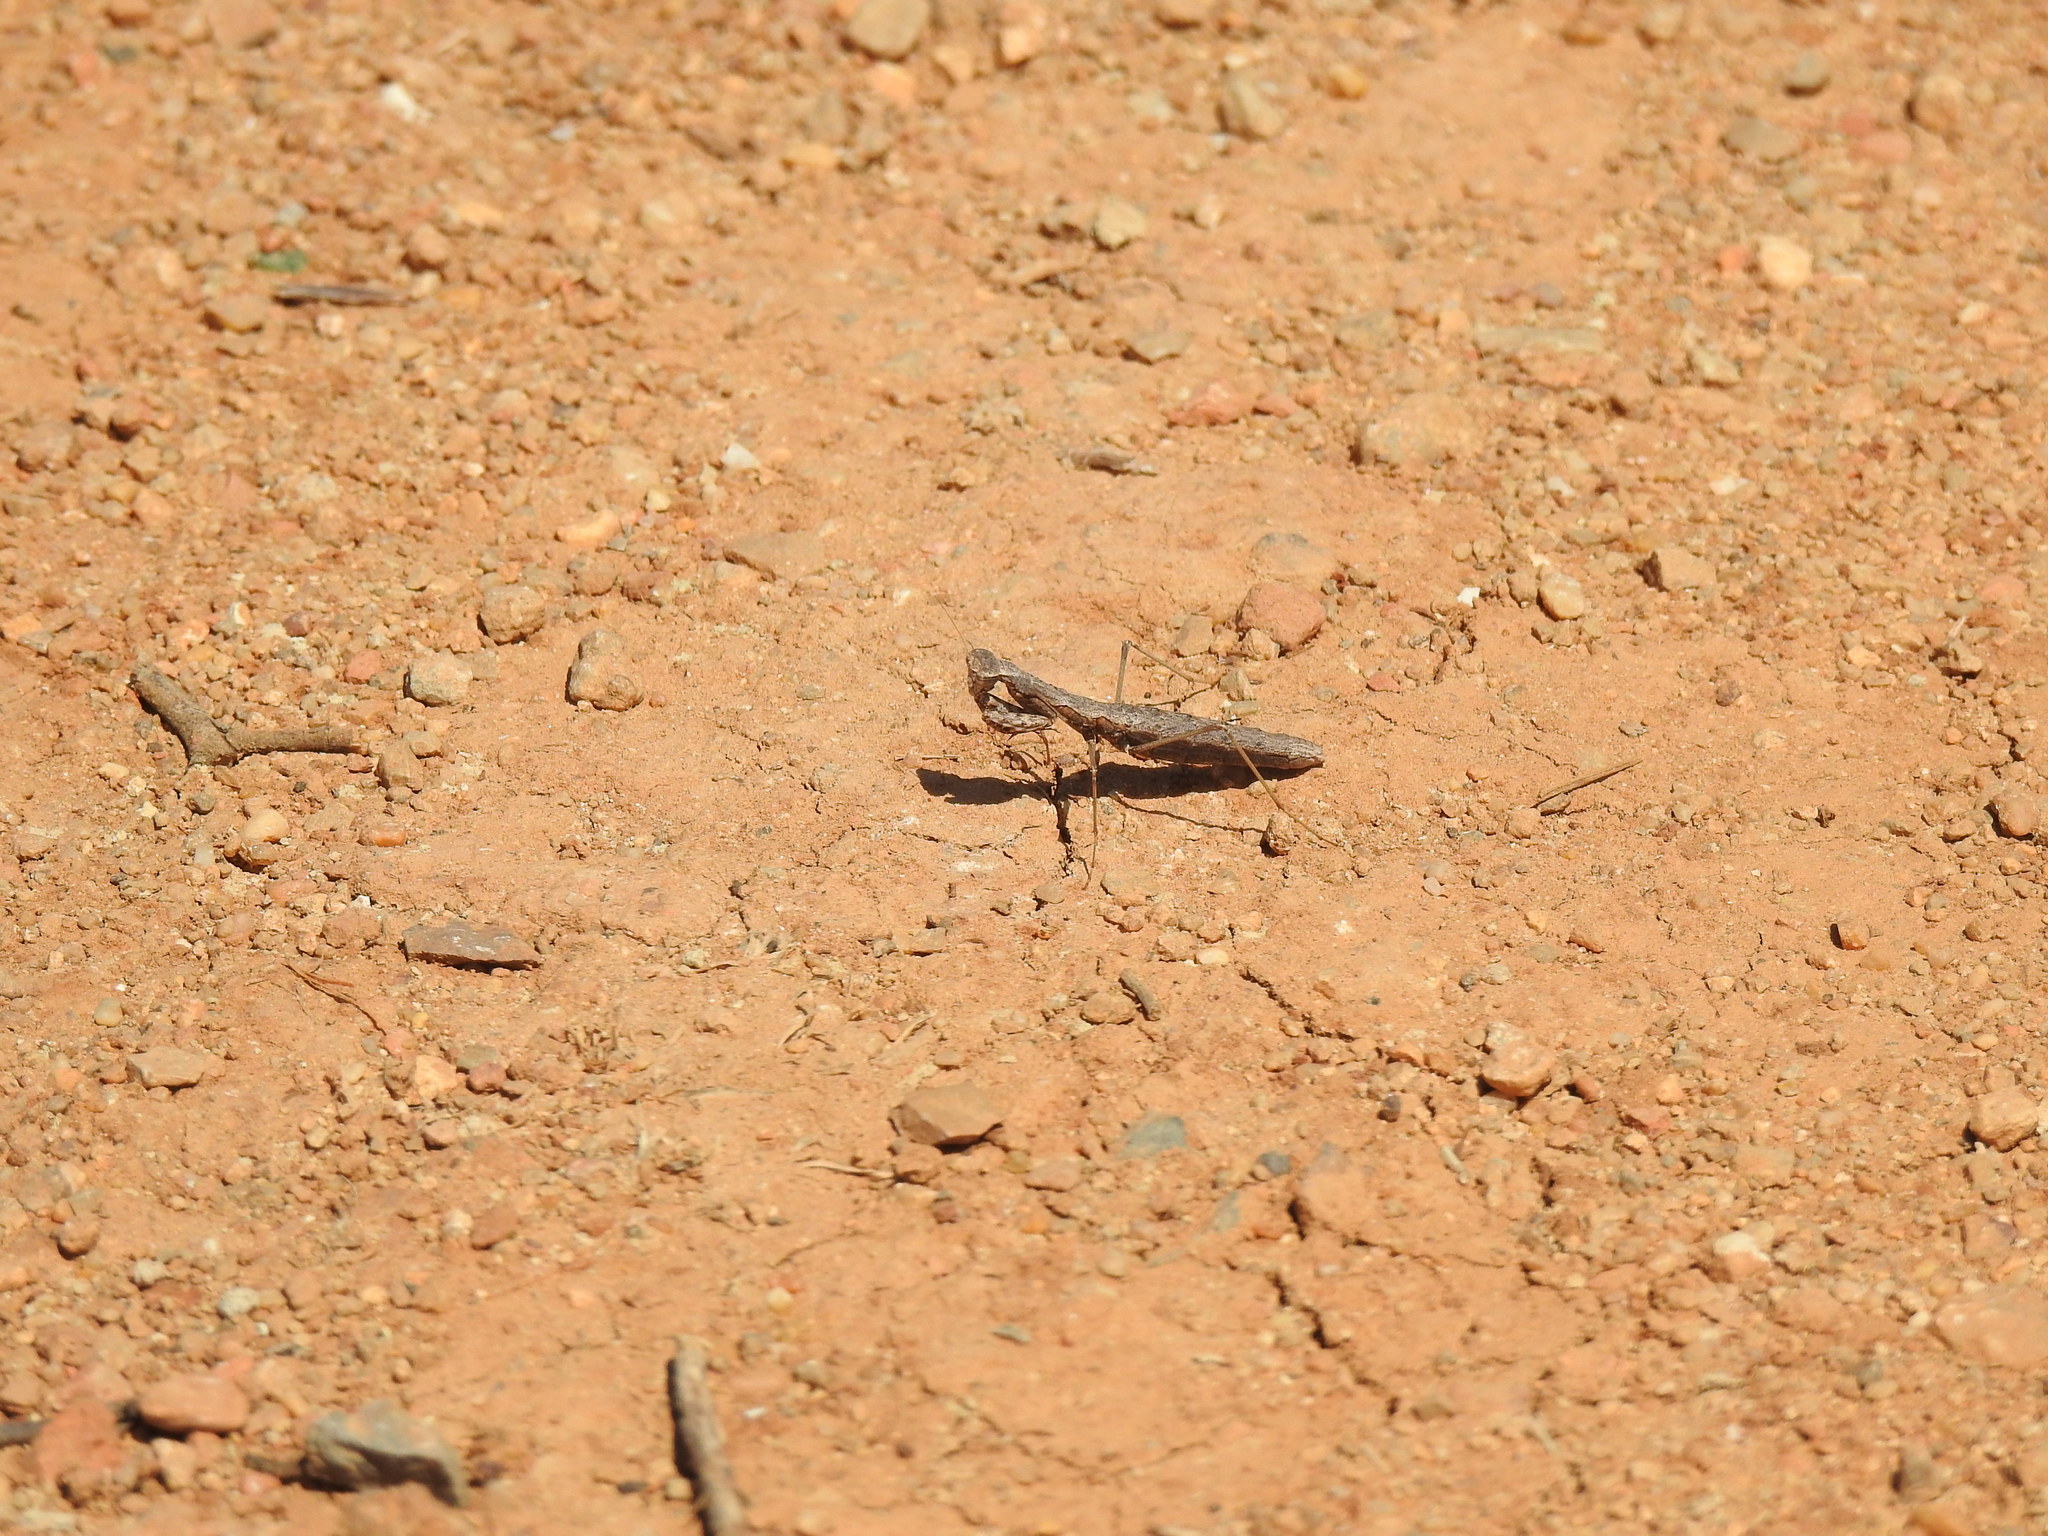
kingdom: Animalia
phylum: Arthropoda
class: Insecta
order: Mantodea
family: Rivetinidae
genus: Geomantis
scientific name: Geomantis larvoides
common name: Wingless ground mantis
